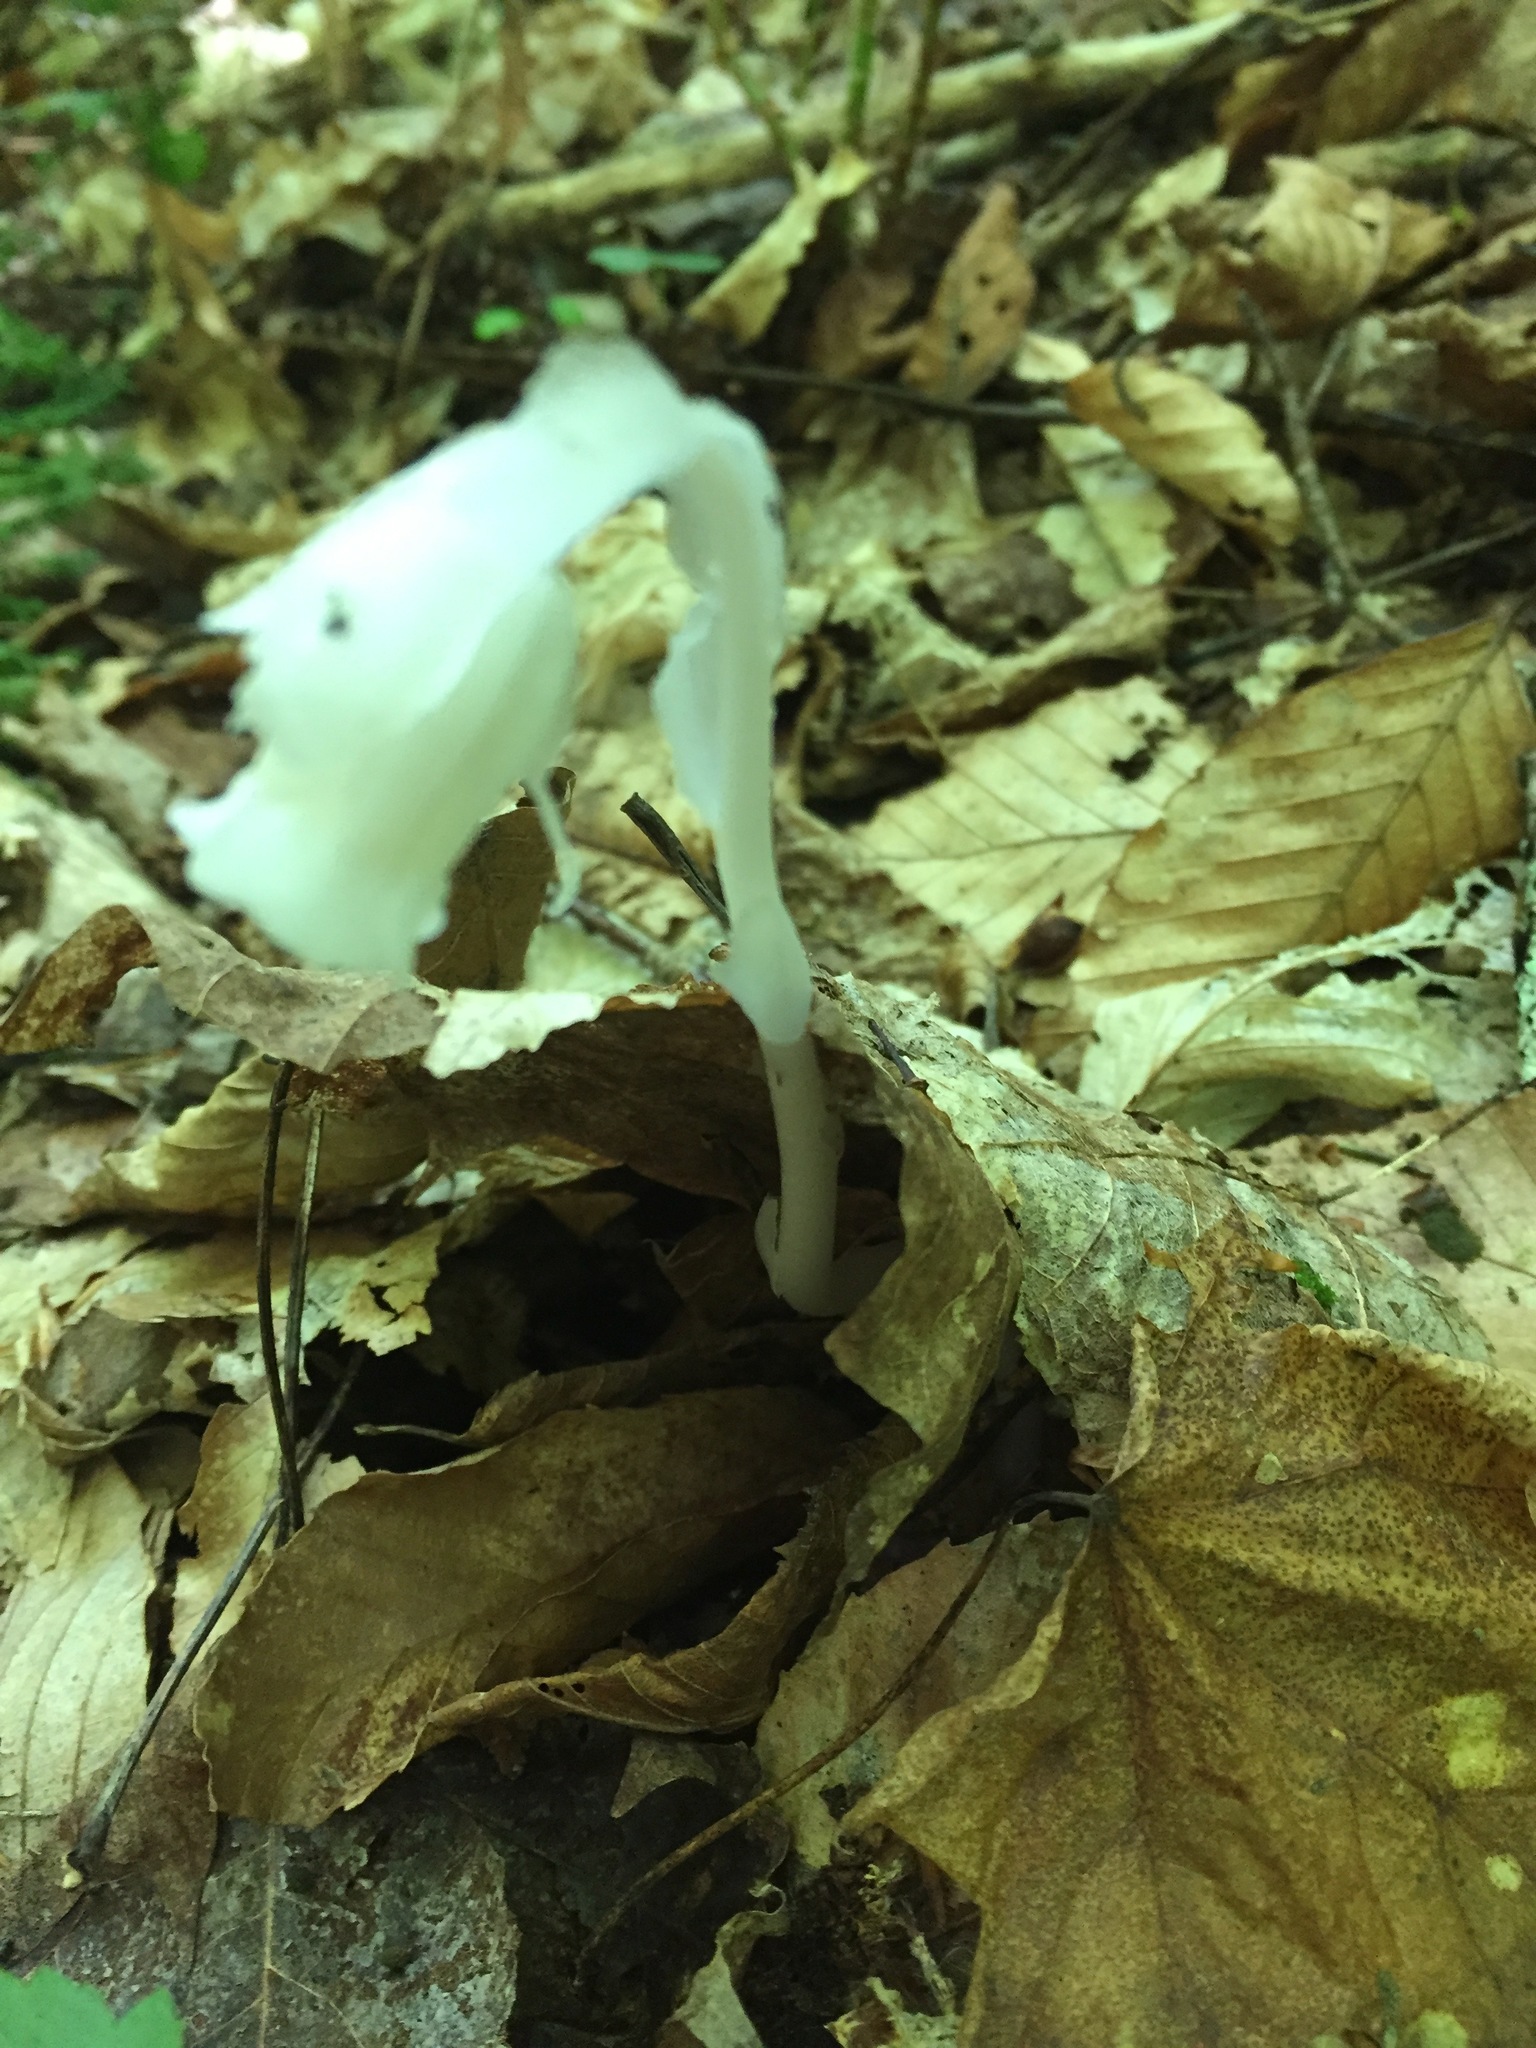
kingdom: Plantae
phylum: Tracheophyta
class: Magnoliopsida
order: Ericales
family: Ericaceae
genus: Monotropa
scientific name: Monotropa uniflora
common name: Convulsion root
